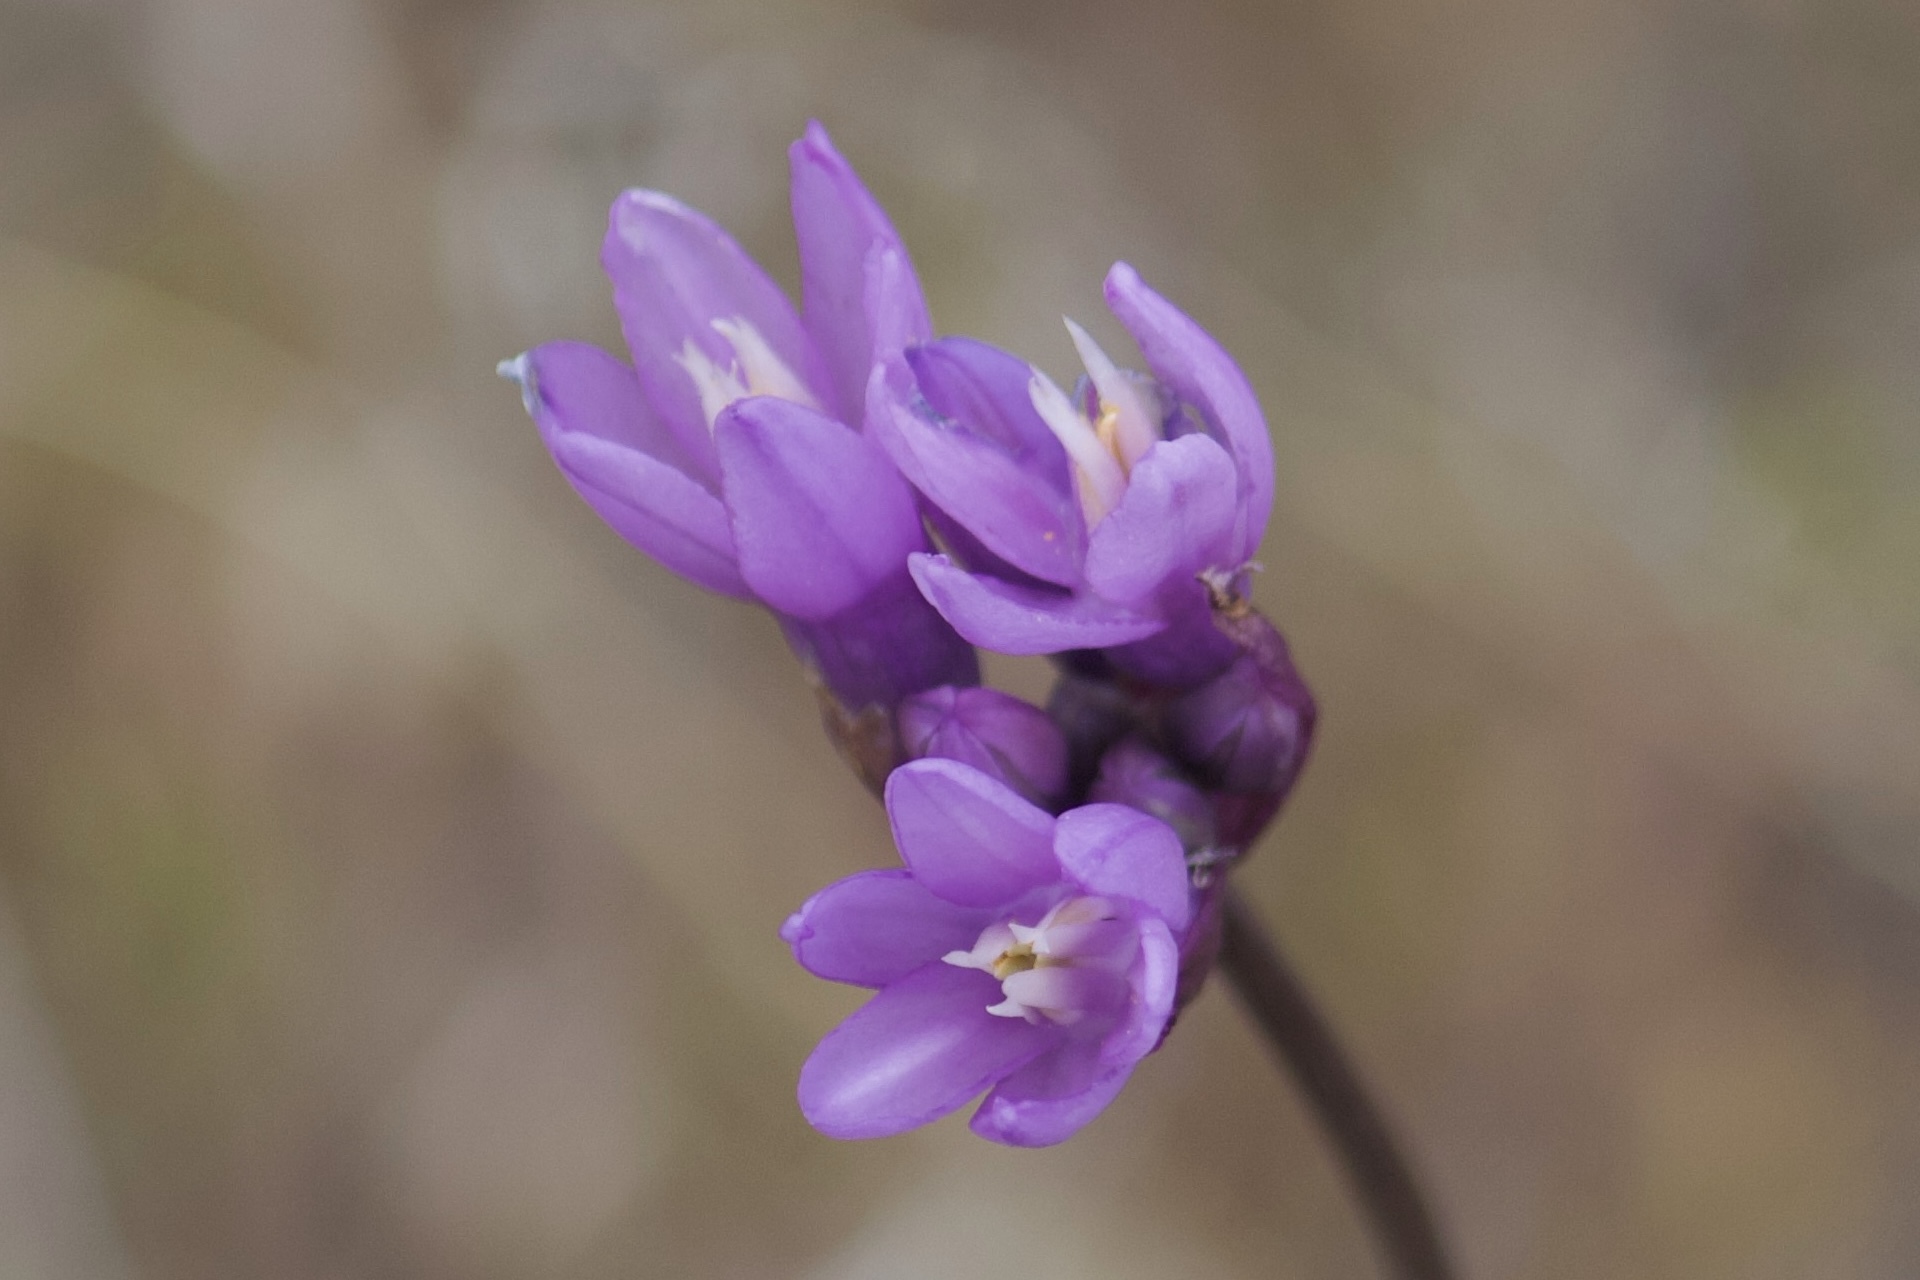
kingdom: Plantae
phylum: Tracheophyta
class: Liliopsida
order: Asparagales
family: Asparagaceae
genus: Dipterostemon
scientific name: Dipterostemon capitatus
